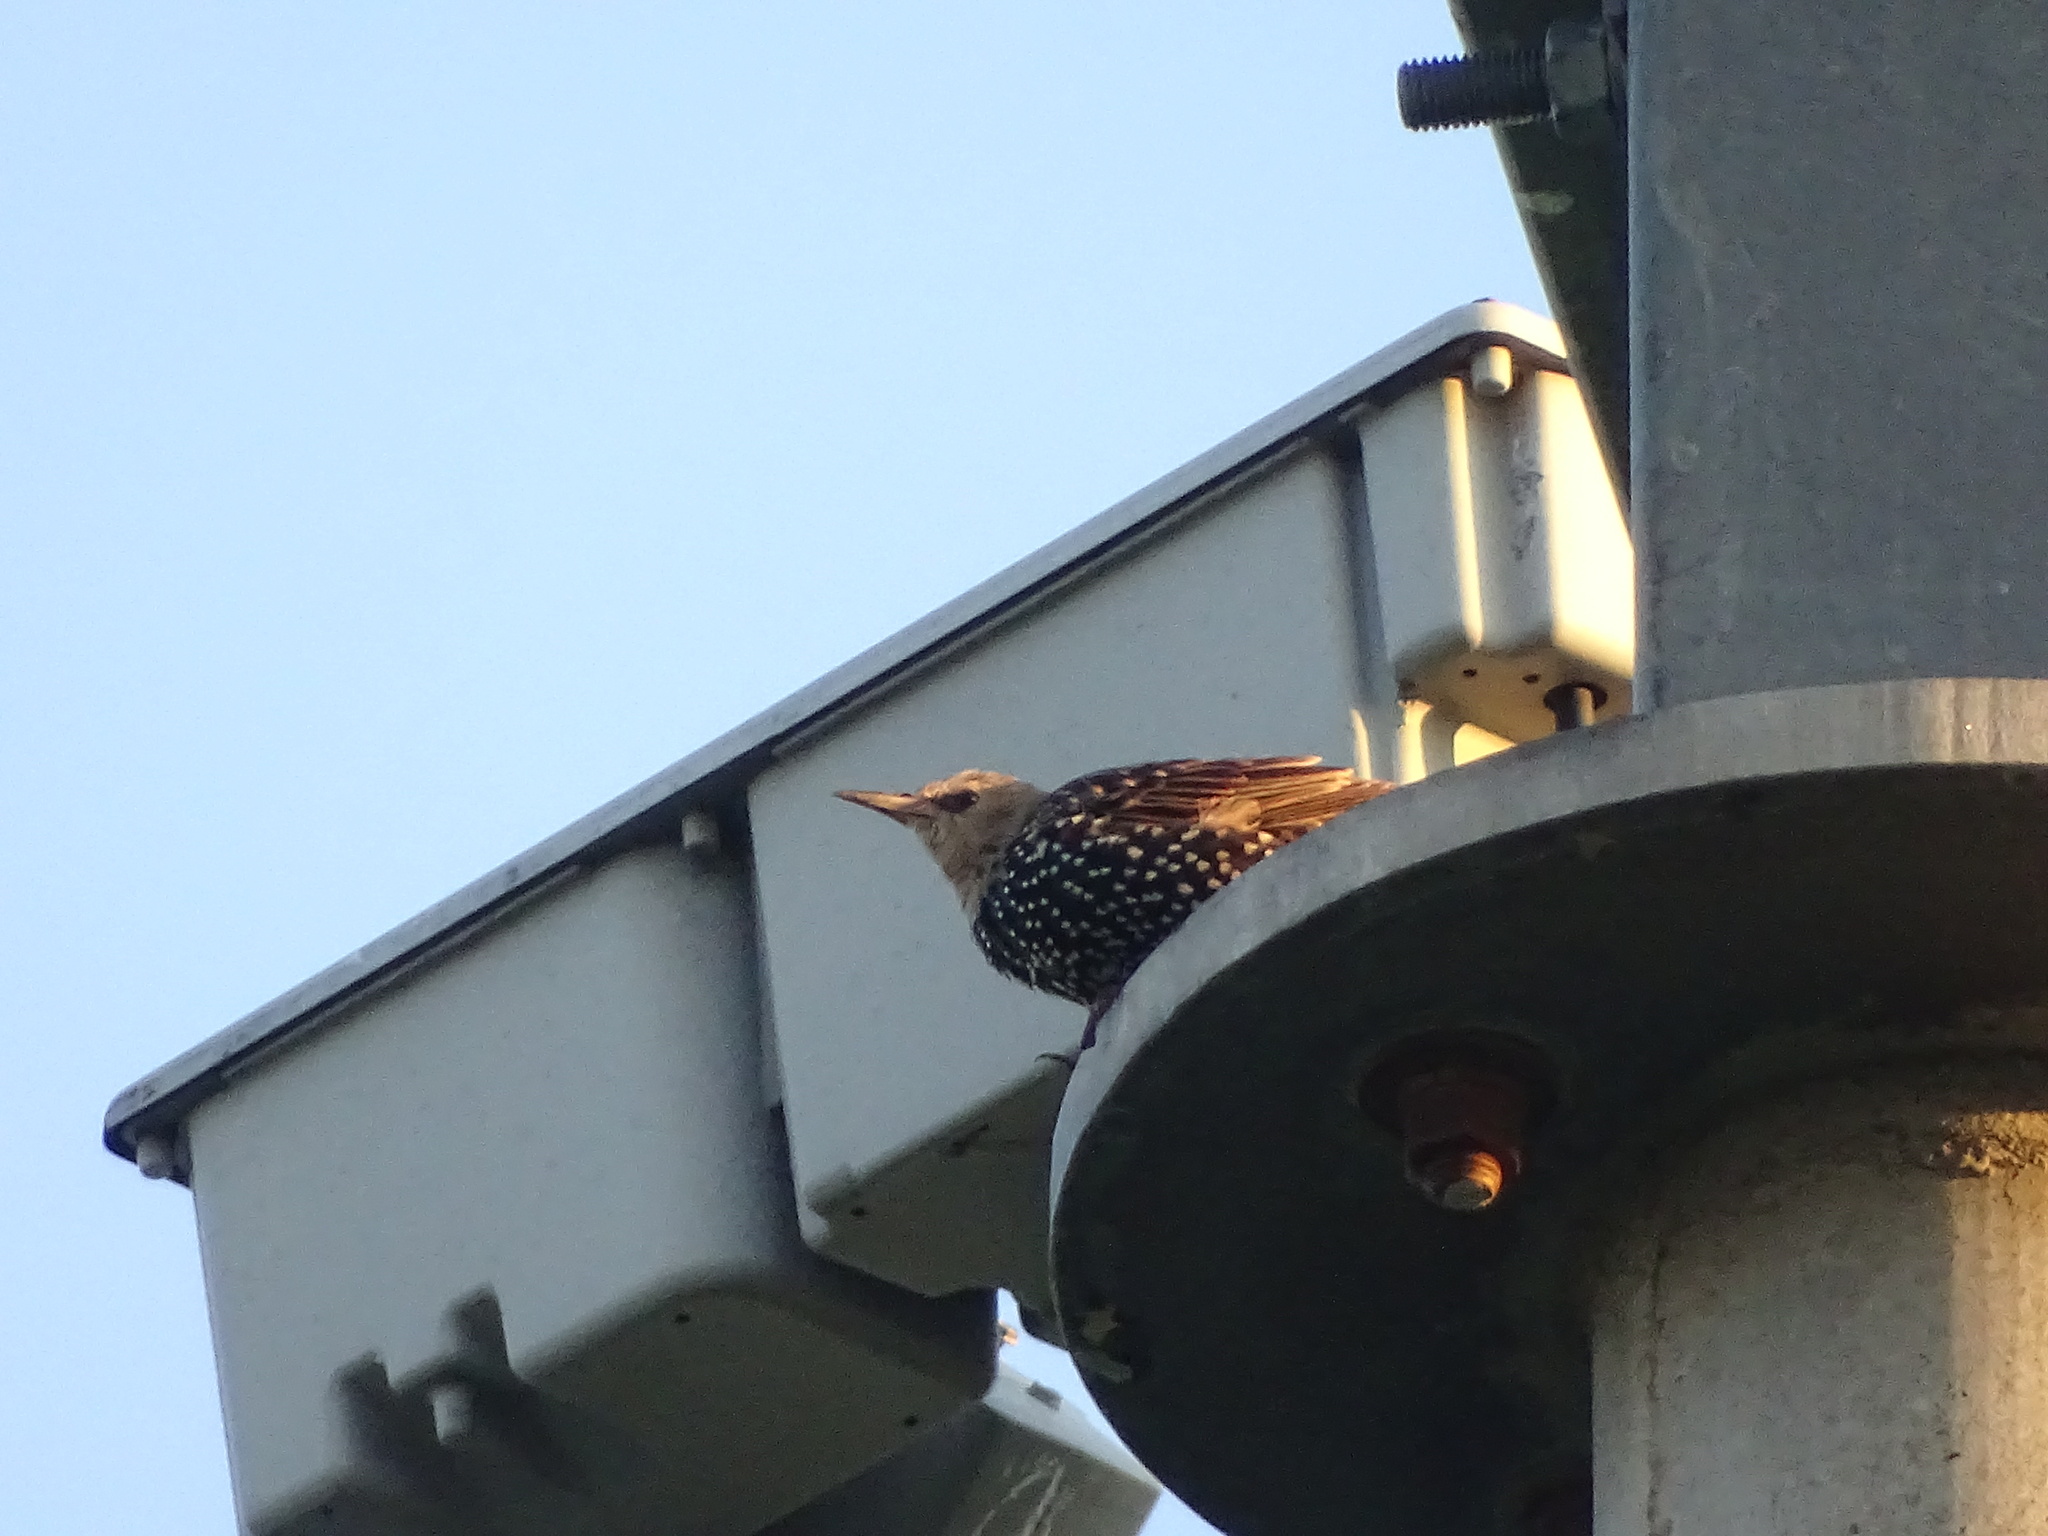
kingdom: Animalia
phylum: Chordata
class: Aves
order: Passeriformes
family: Sturnidae
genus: Sturnus
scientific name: Sturnus vulgaris
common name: Common starling
